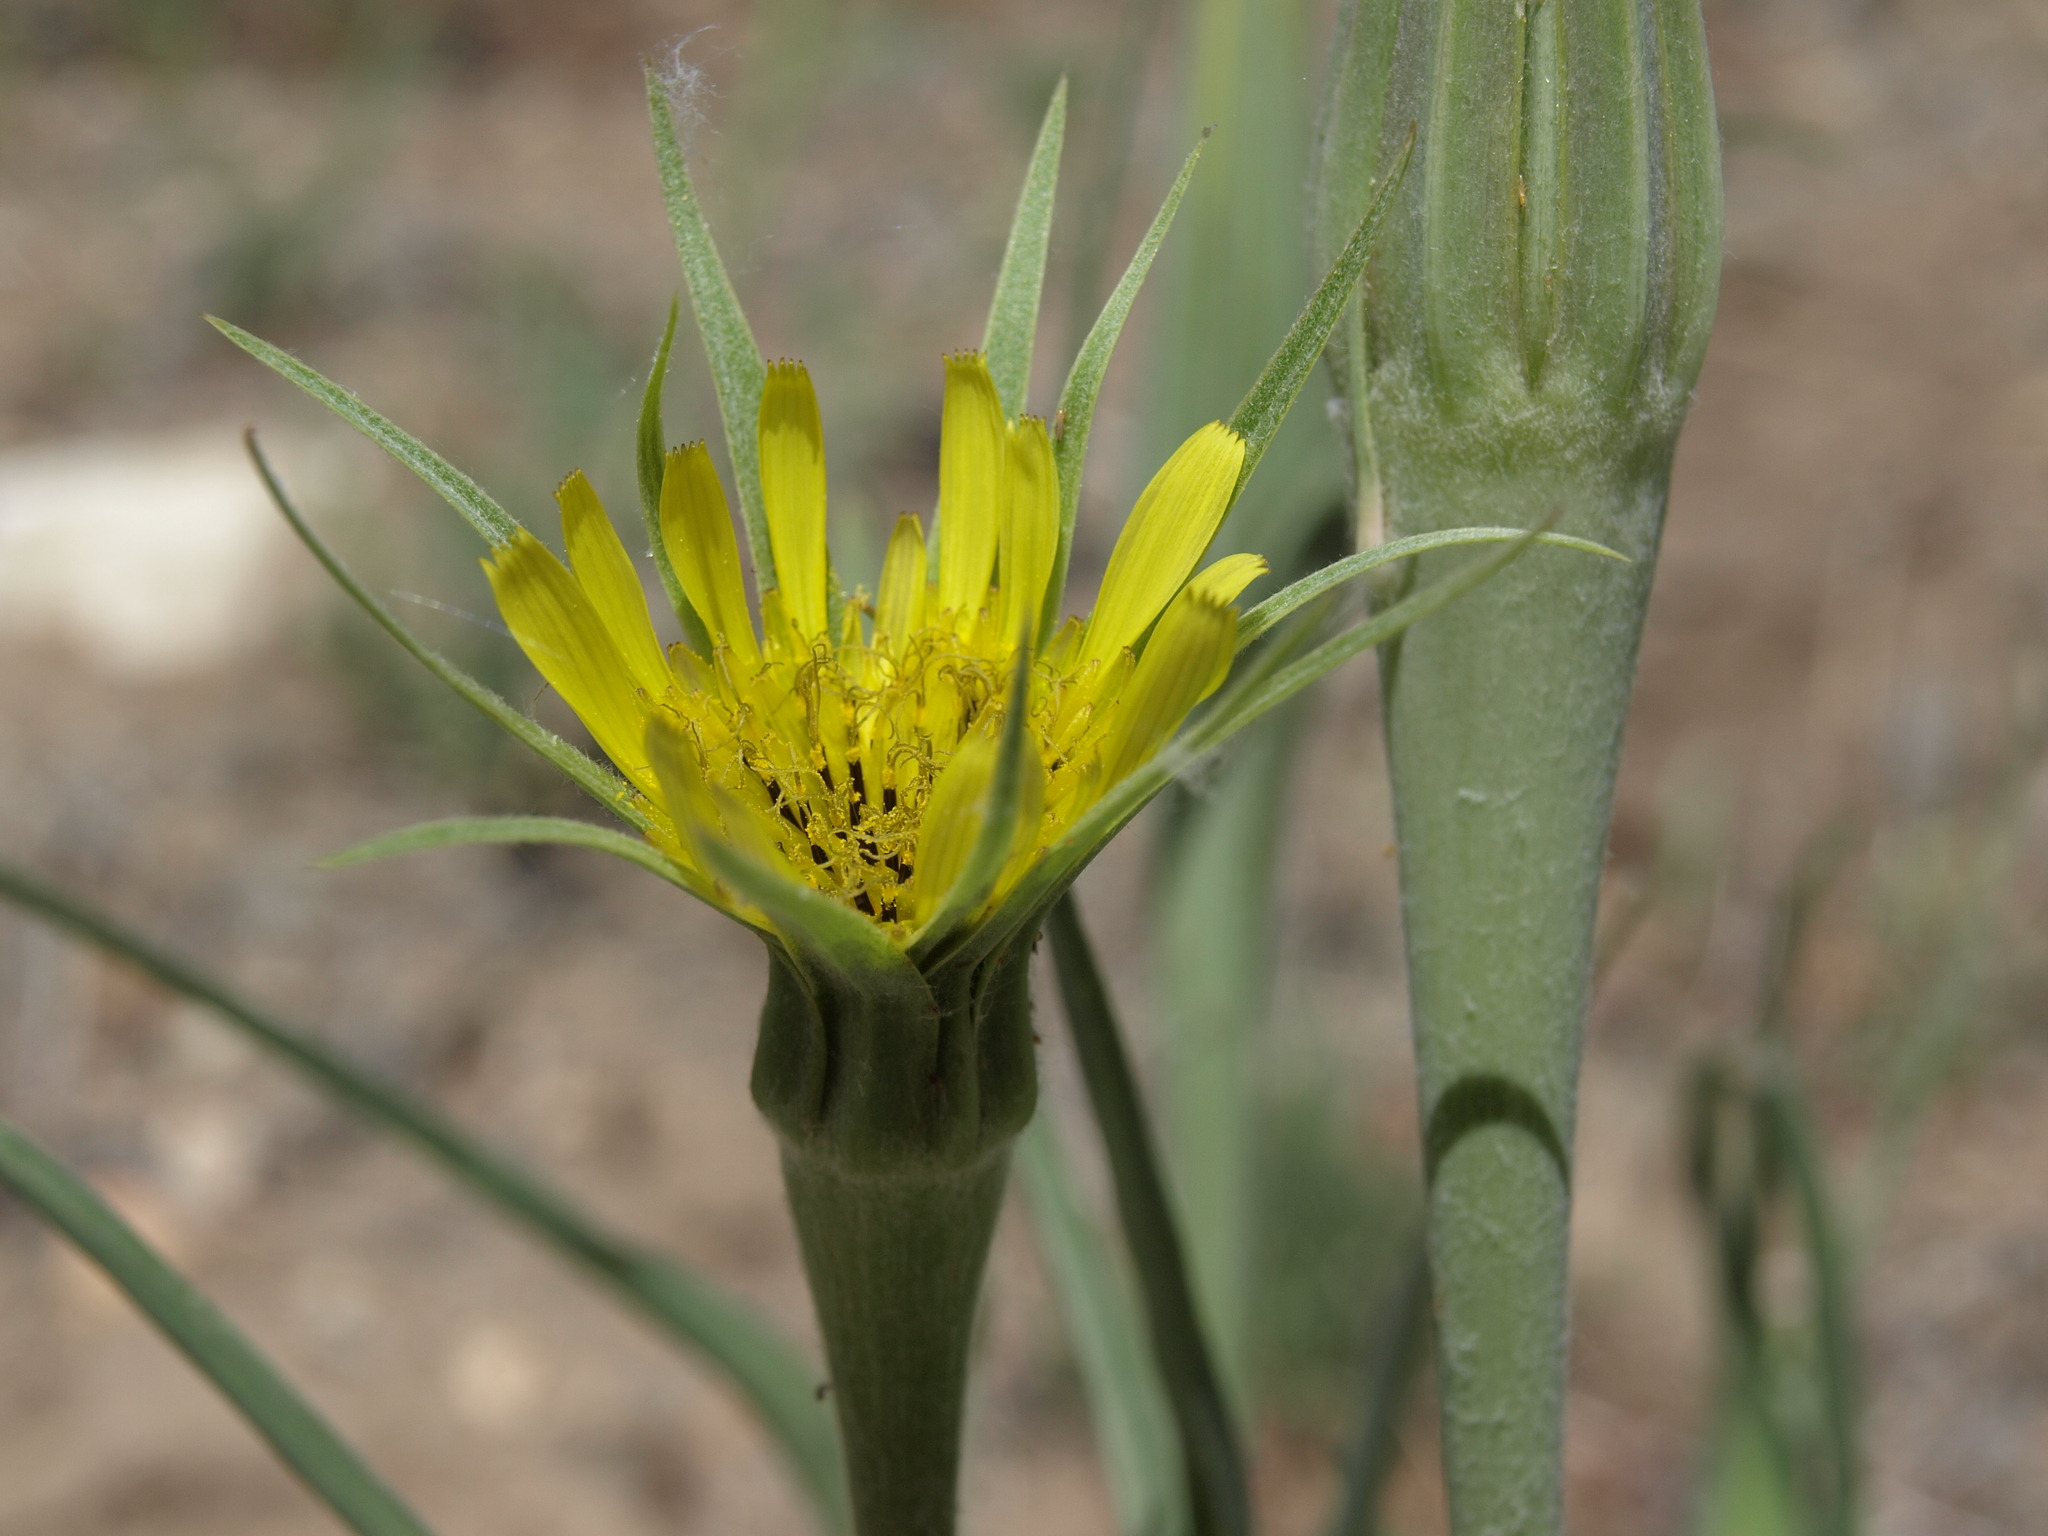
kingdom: Plantae
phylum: Tracheophyta
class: Magnoliopsida
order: Asterales
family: Asteraceae
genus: Tragopogon
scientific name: Tragopogon dubius
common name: Yellow salsify
